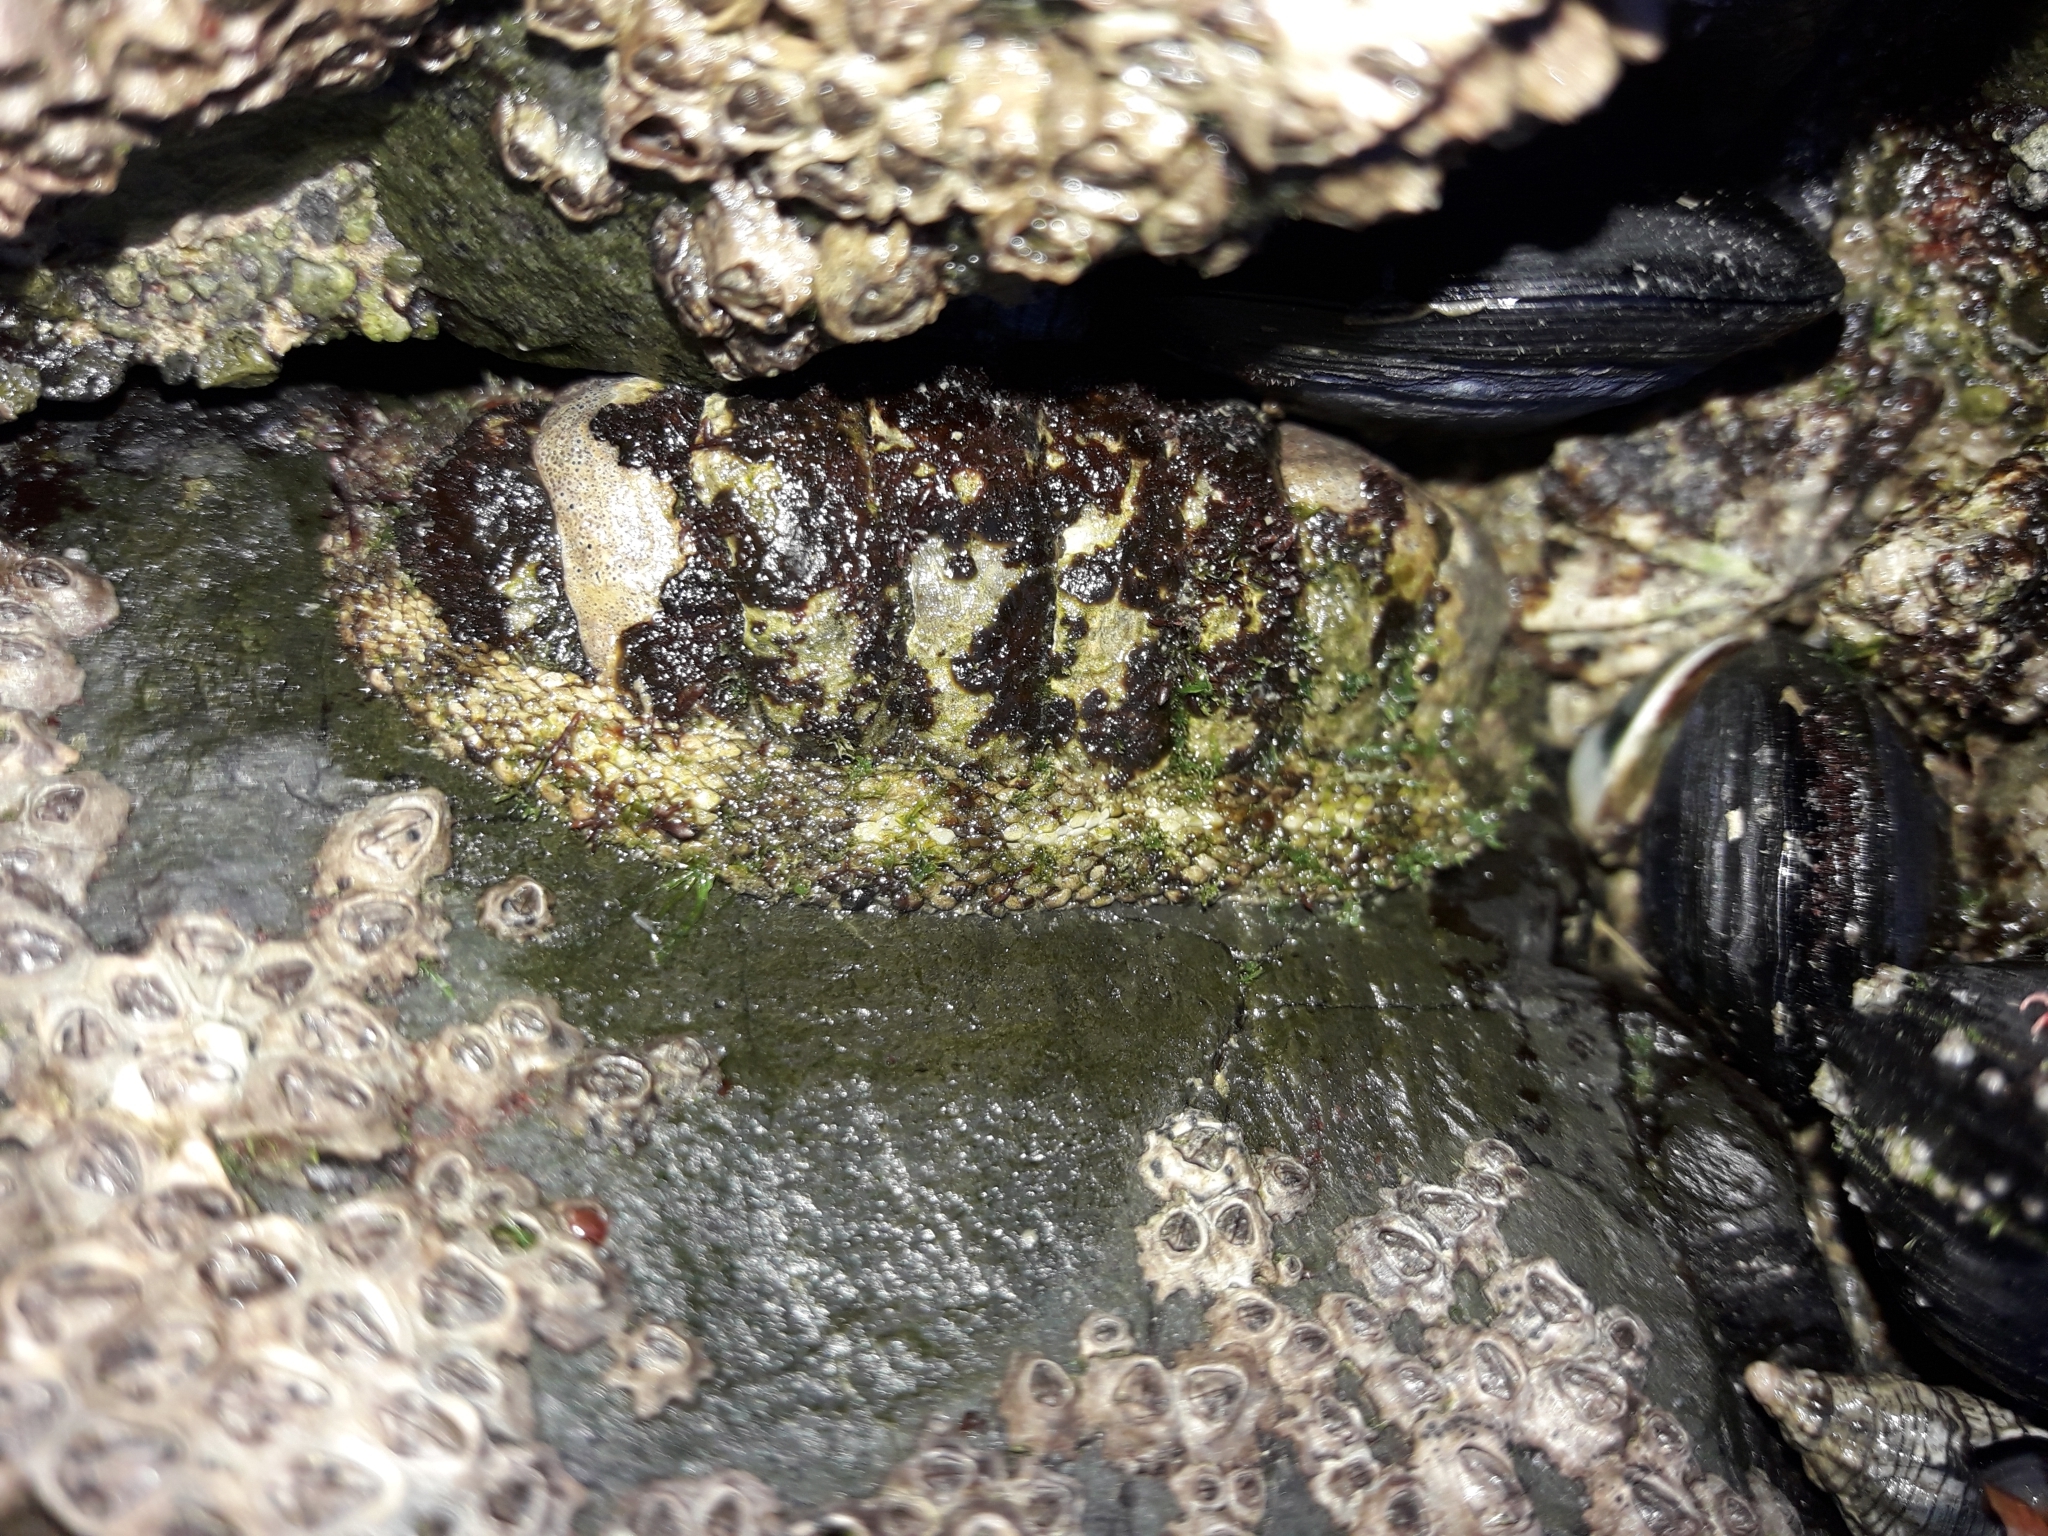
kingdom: Animalia
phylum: Mollusca
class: Polyplacophora
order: Chitonida
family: Chitonidae
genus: Sypharochiton
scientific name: Sypharochiton pelliserpentis
